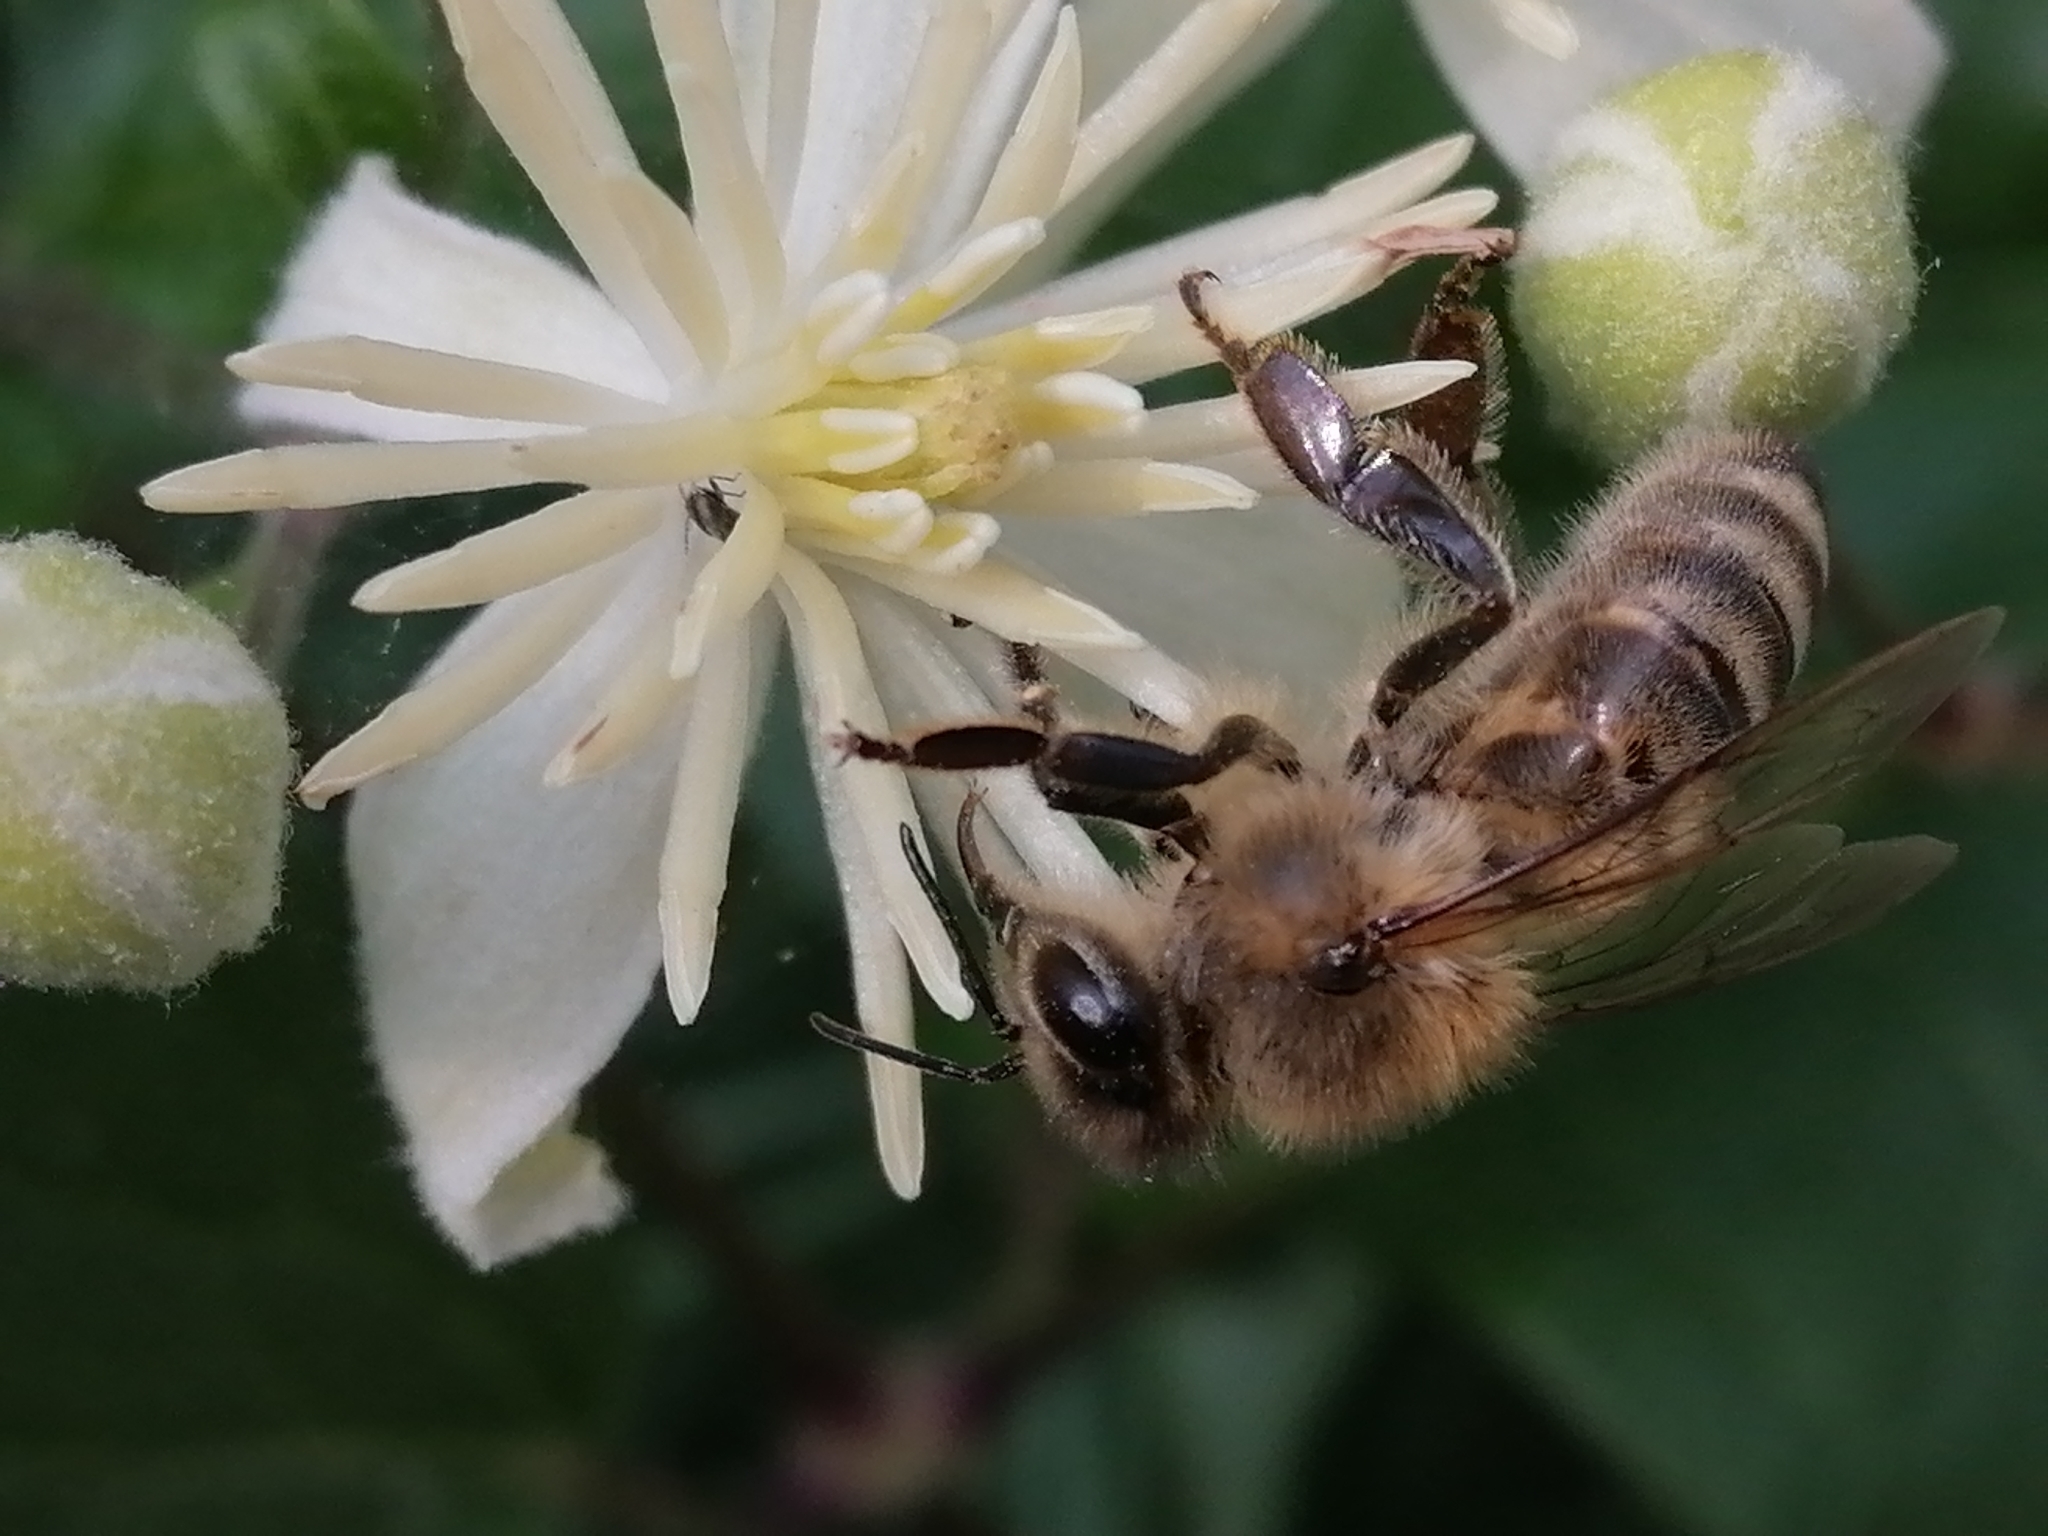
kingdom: Animalia
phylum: Arthropoda
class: Insecta
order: Hymenoptera
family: Apidae
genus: Apis
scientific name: Apis mellifera
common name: Honey bee
